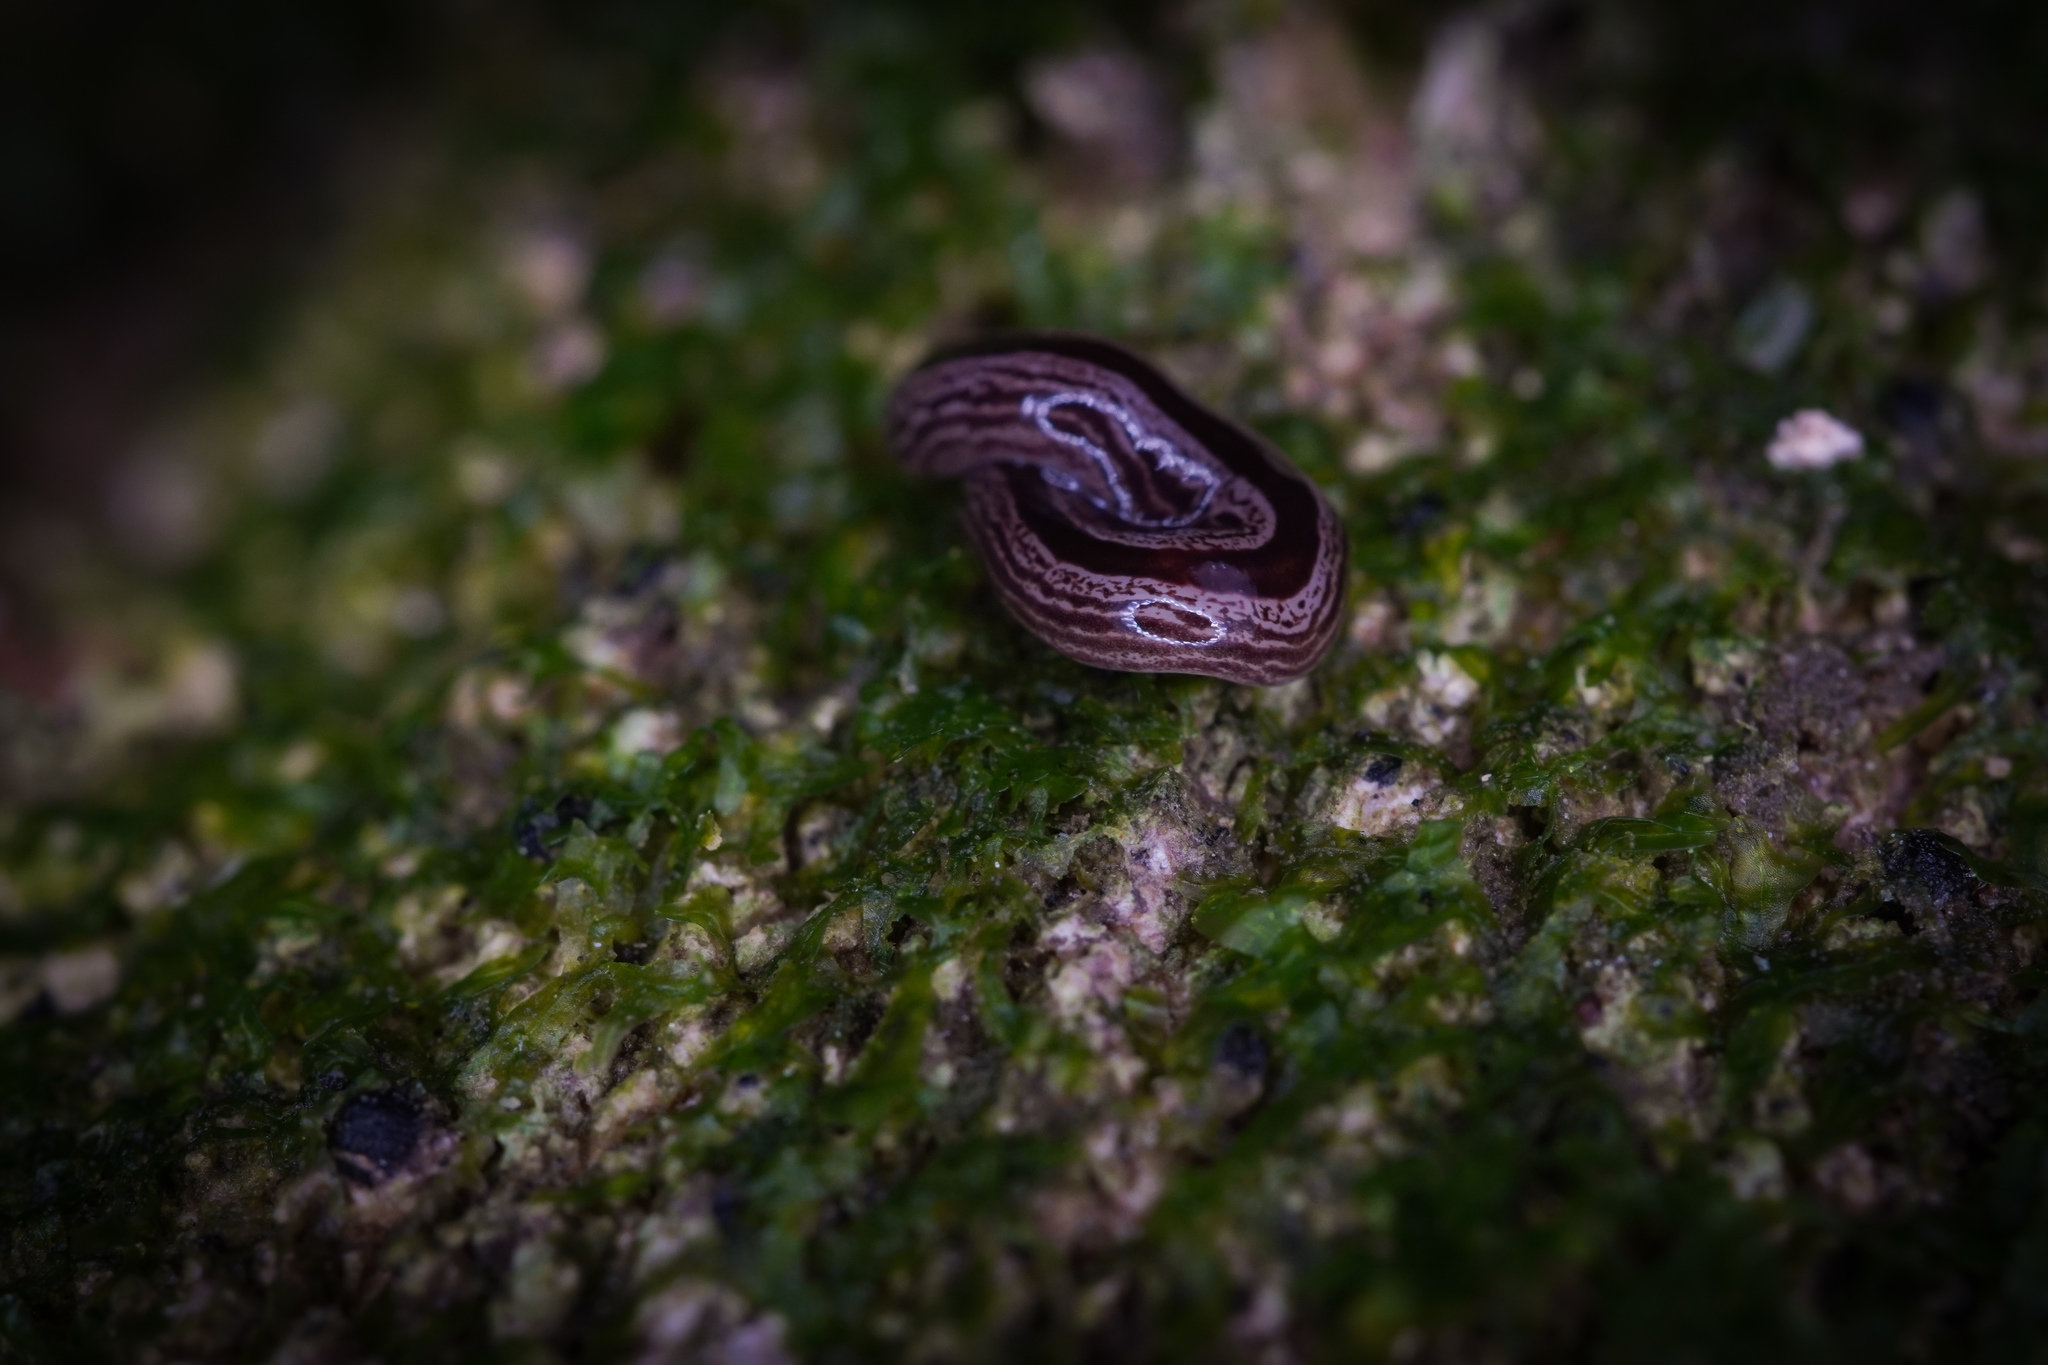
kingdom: Animalia
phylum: Platyhelminthes
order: Tricladida
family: Geoplanidae
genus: Artioposthia
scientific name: Artioposthia exulans
